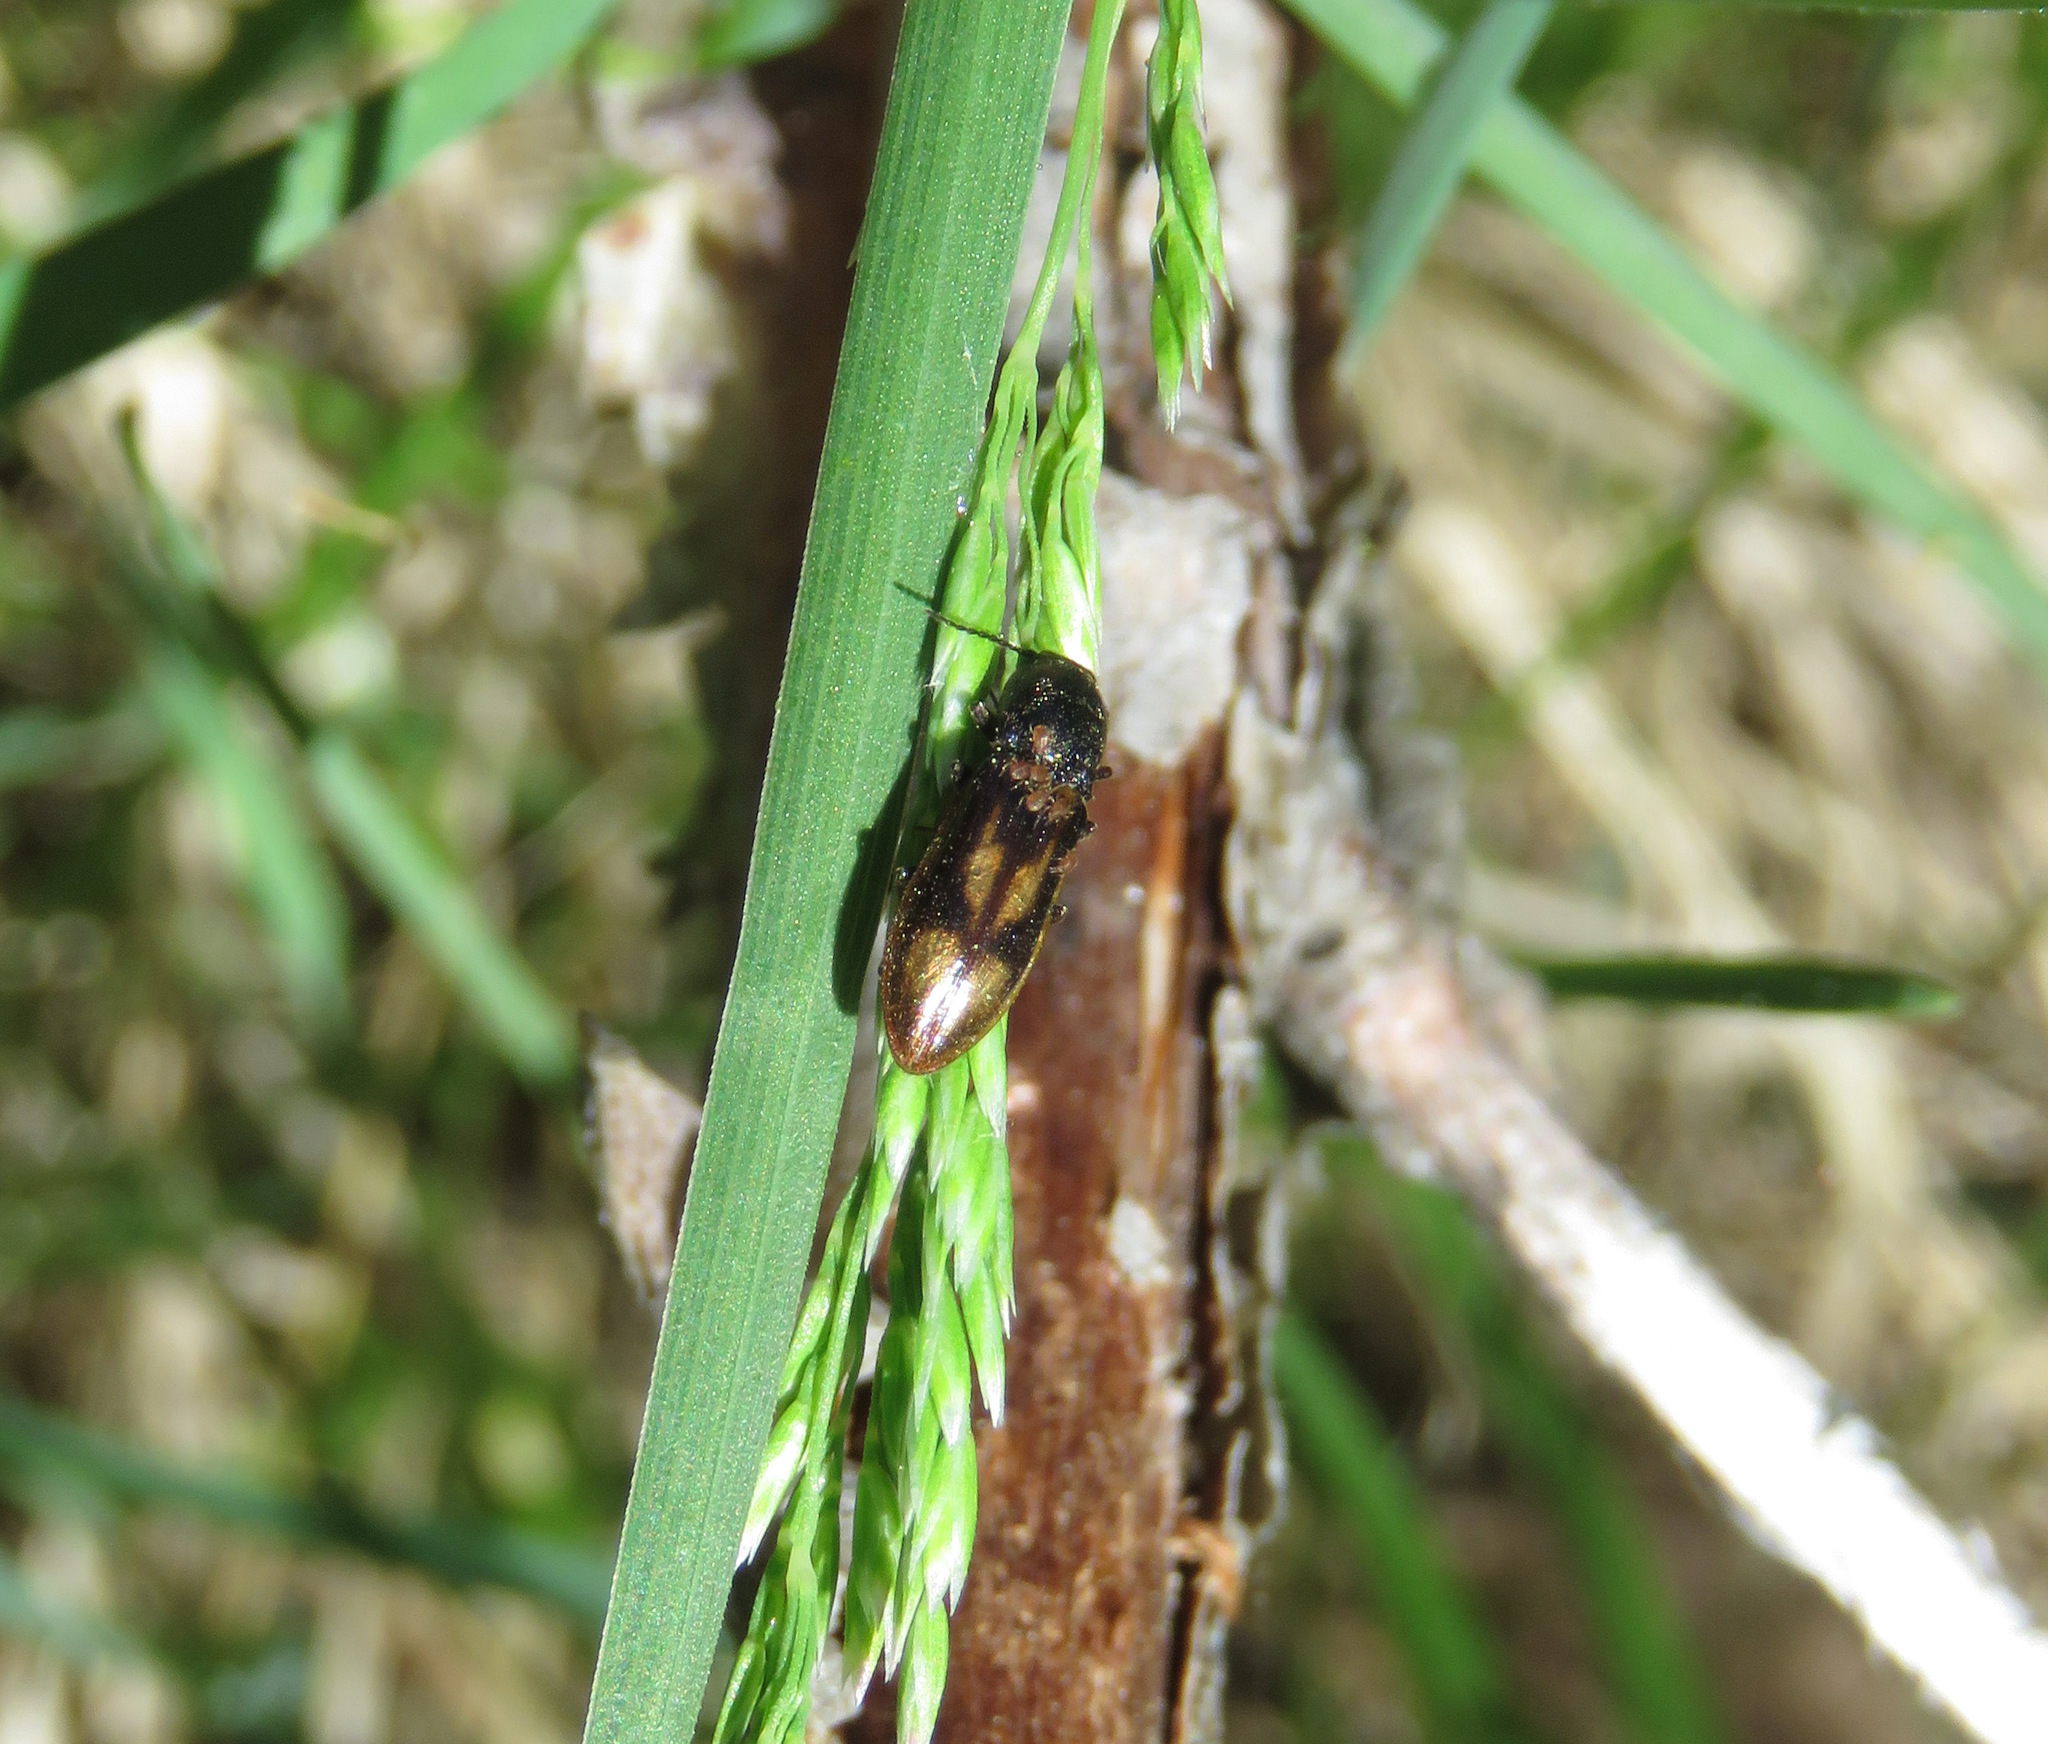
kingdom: Animalia
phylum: Arthropoda
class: Insecta
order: Coleoptera
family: Elateridae
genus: Liotrichus
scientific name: Liotrichus umbripennis
